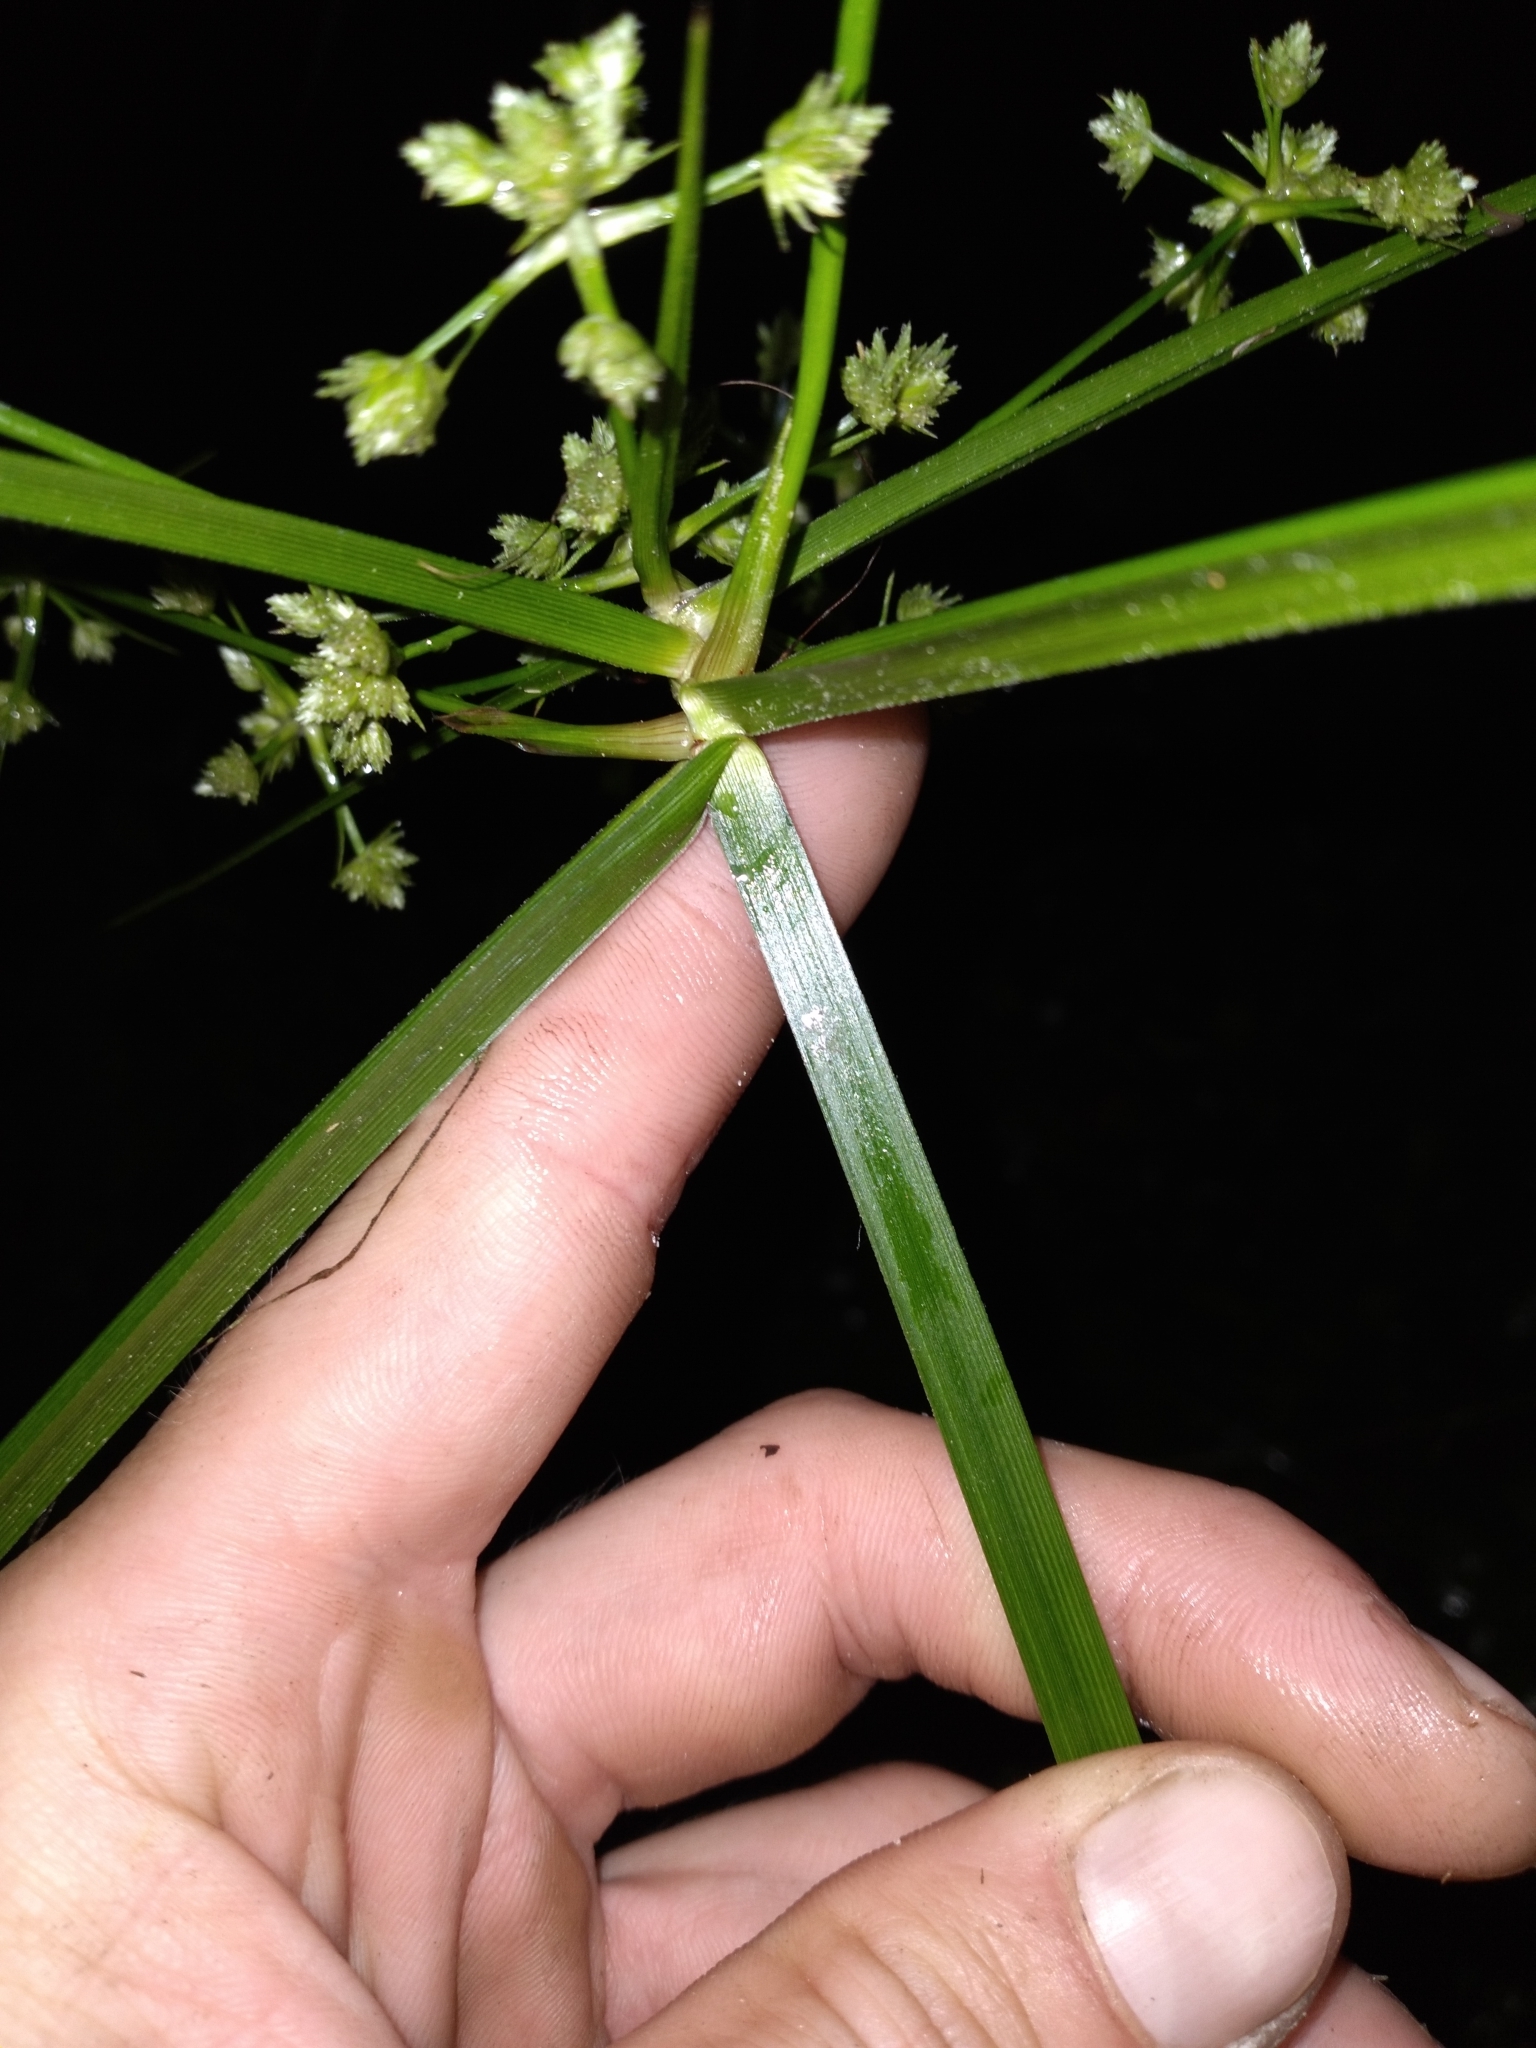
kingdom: Plantae
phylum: Tracheophyta
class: Liliopsida
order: Poales
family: Cyperaceae
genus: Cyperus
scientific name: Cyperus virens
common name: Green flatsedge
